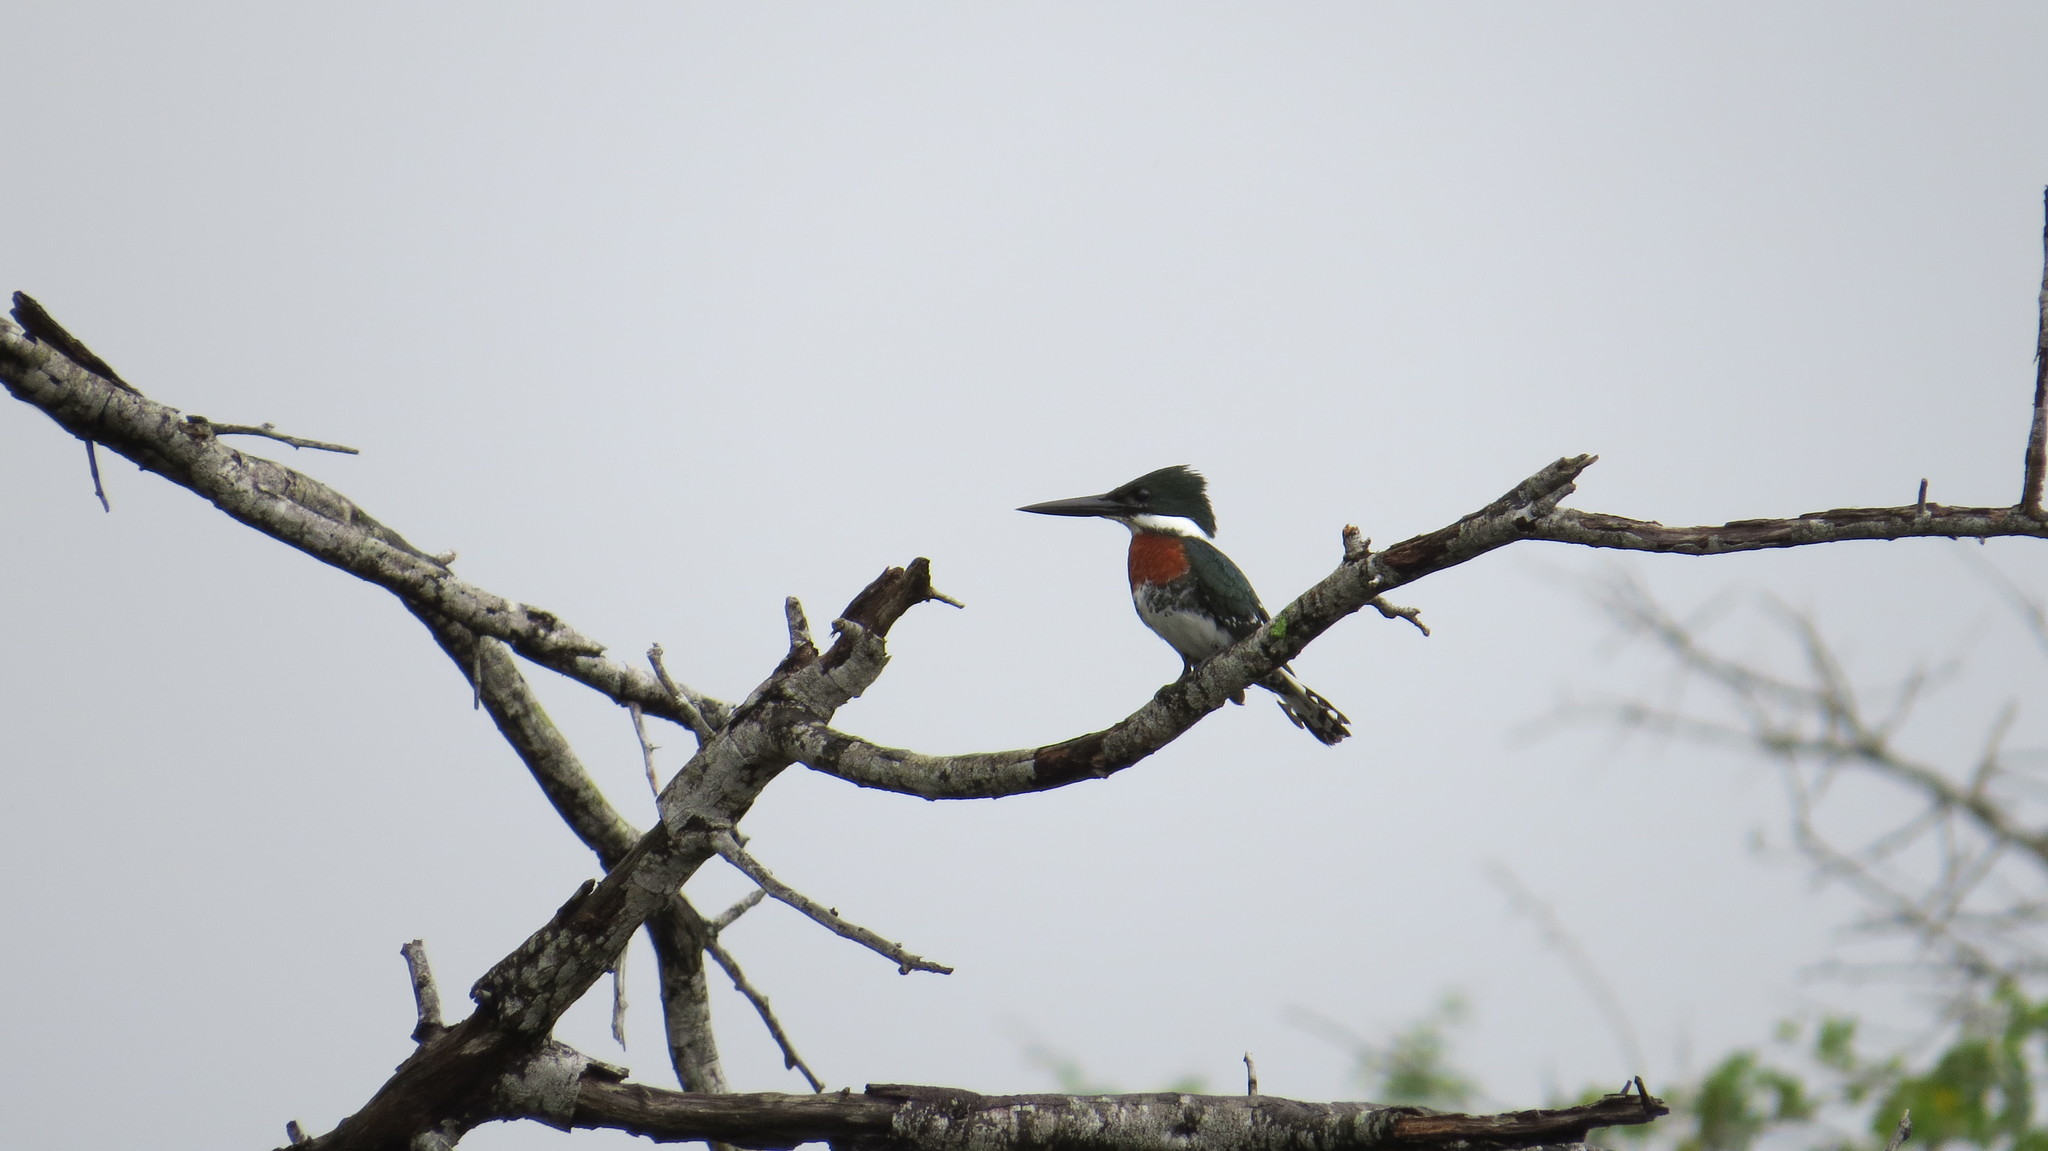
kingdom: Animalia
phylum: Chordata
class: Aves
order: Coraciiformes
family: Alcedinidae
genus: Chloroceryle
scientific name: Chloroceryle americana
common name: Green kingfisher
